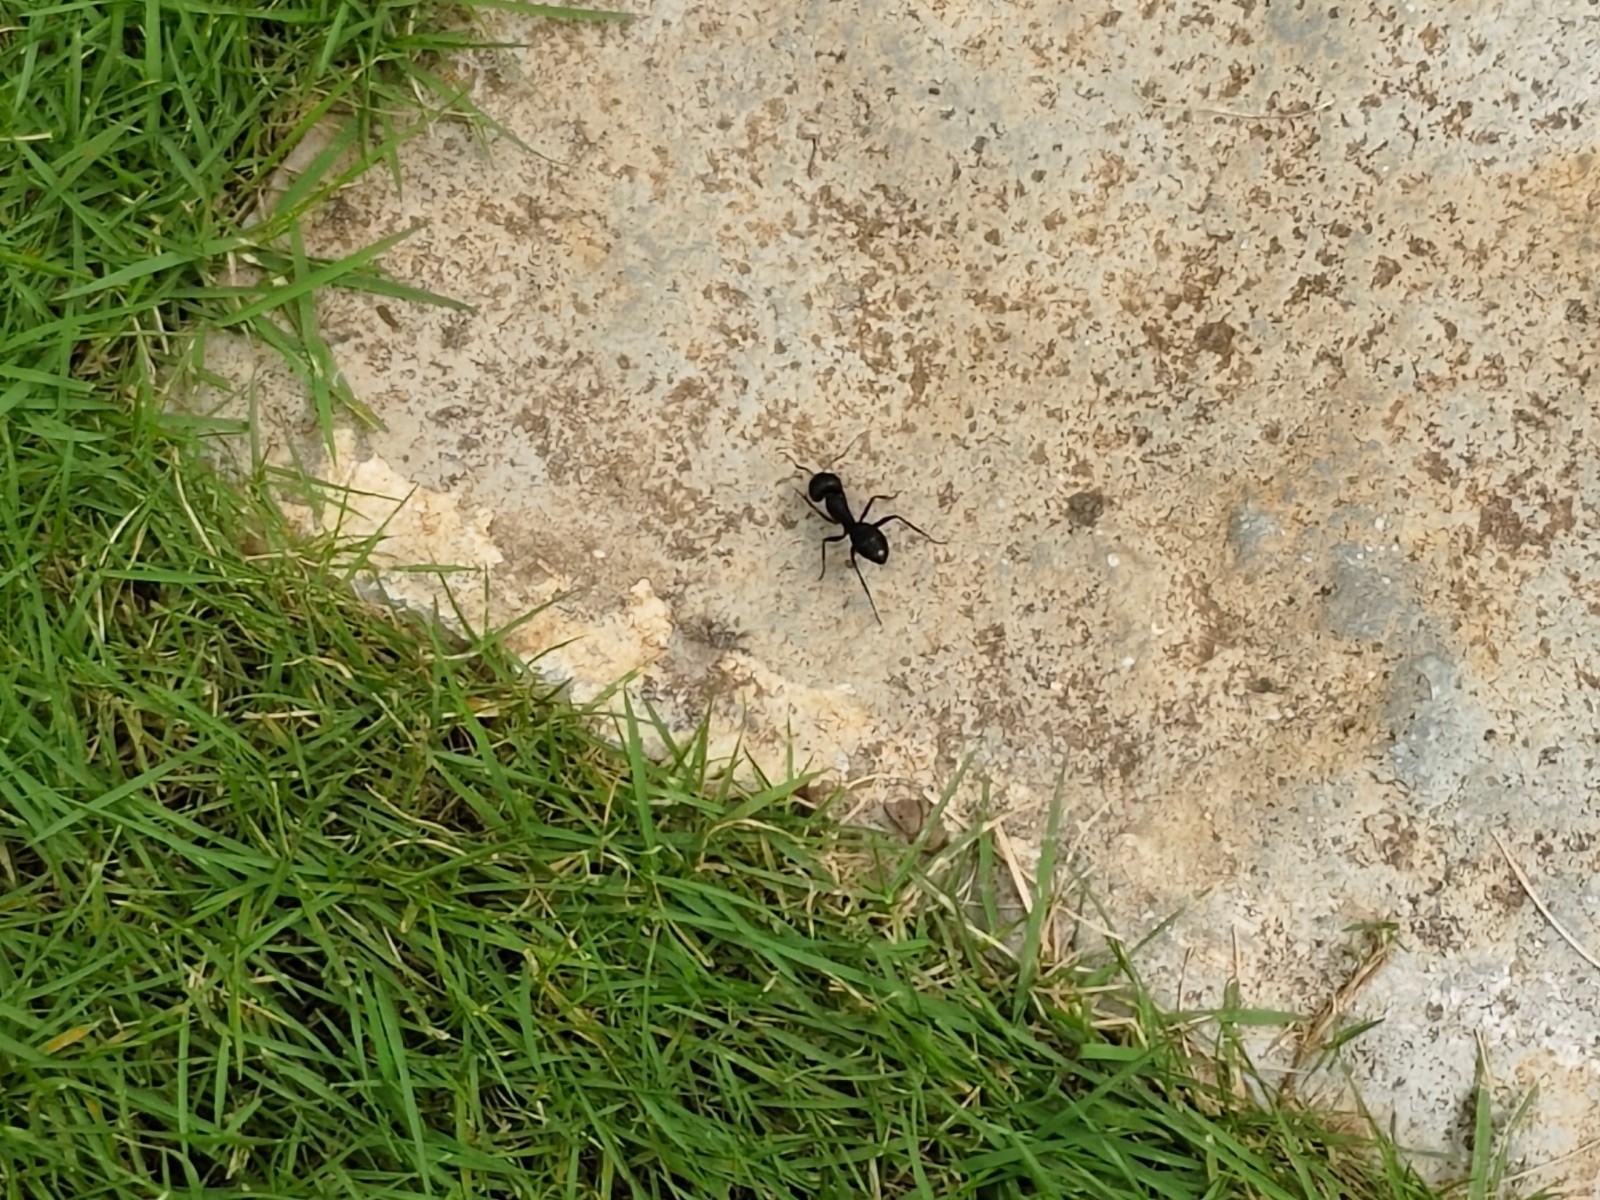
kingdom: Animalia
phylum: Arthropoda
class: Insecta
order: Hymenoptera
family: Formicidae
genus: Camponotus
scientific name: Camponotus compressus
